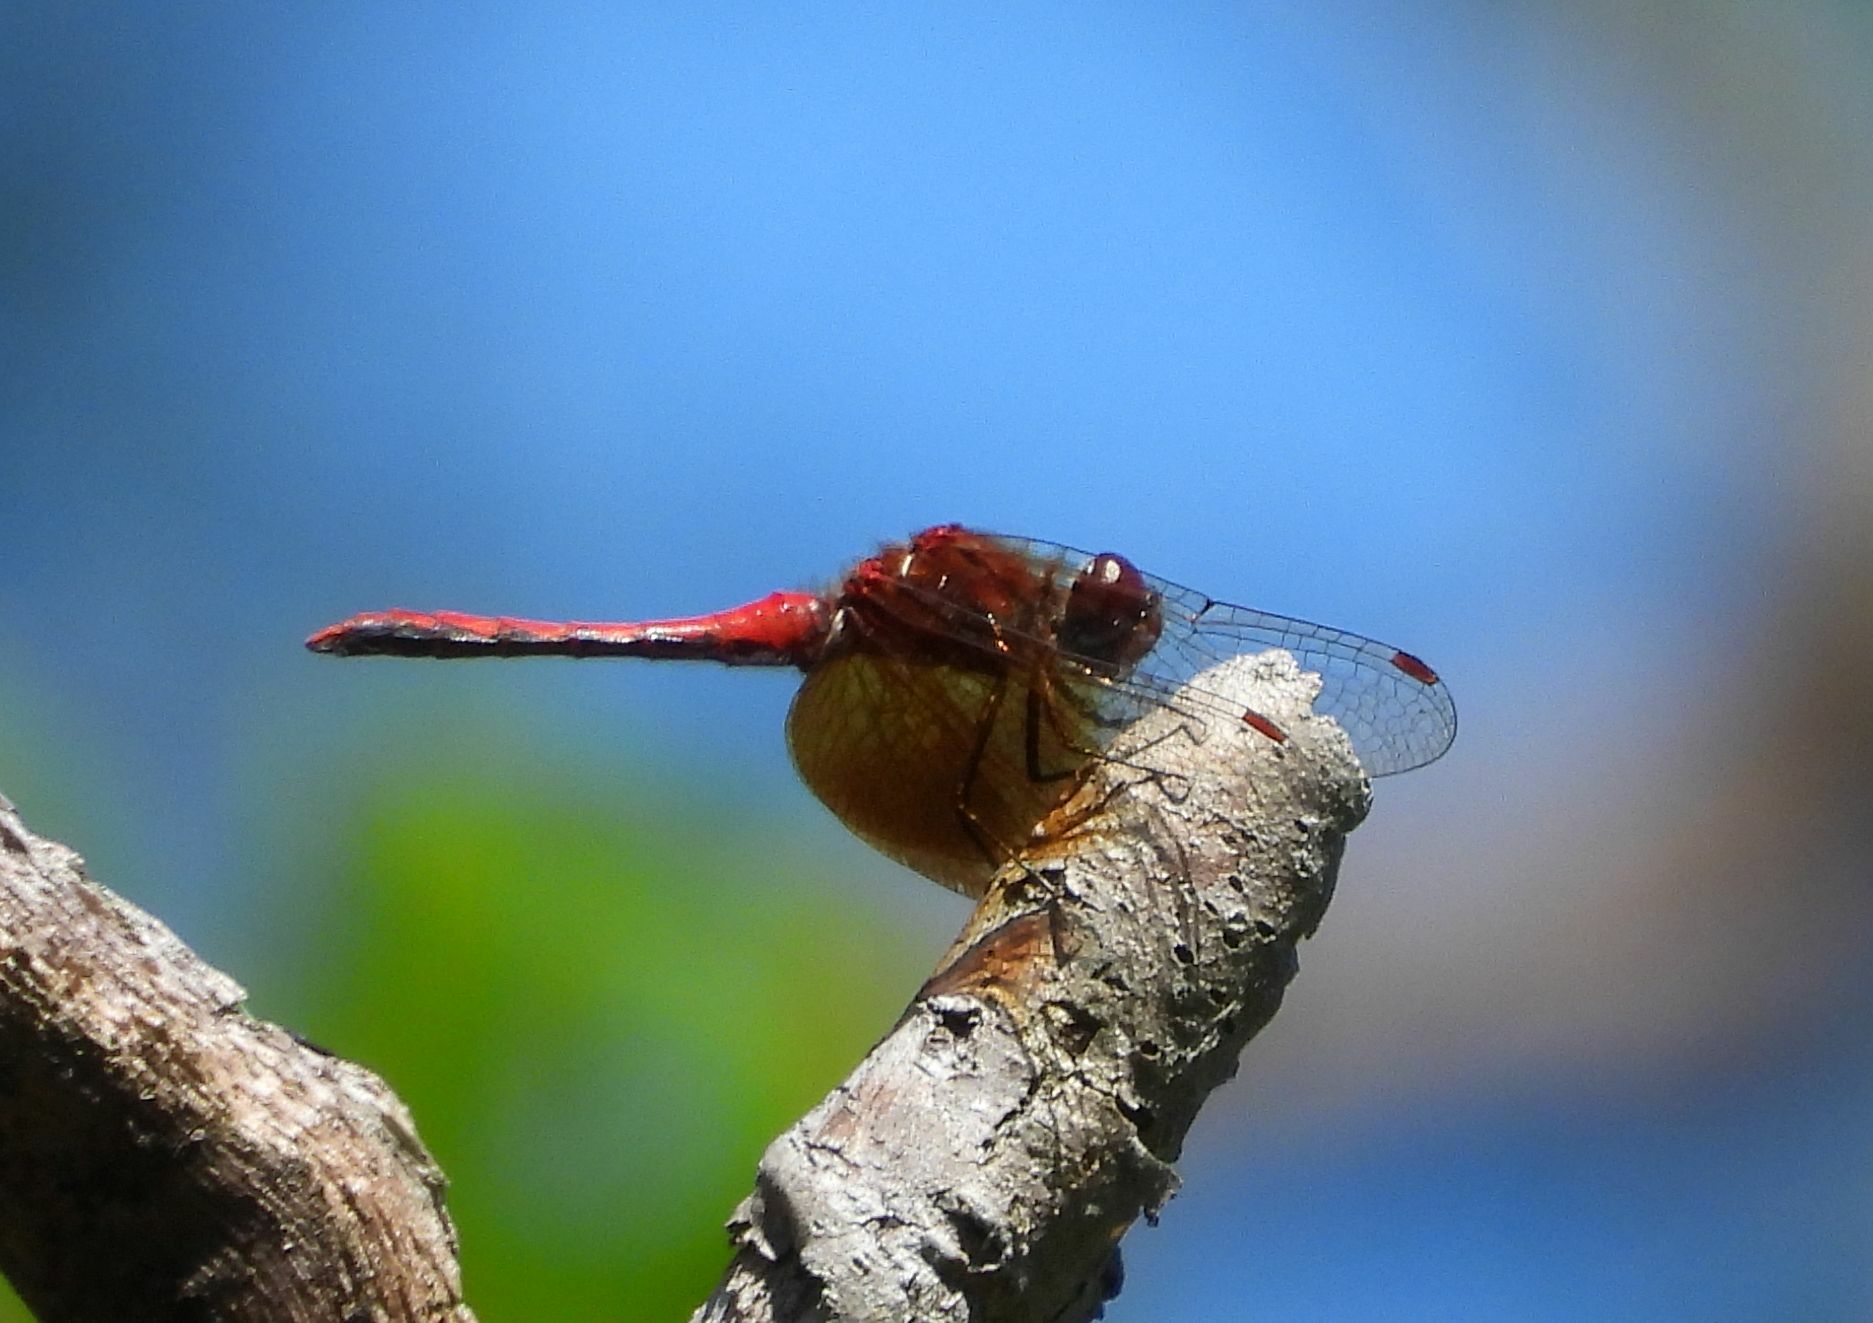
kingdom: Animalia
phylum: Arthropoda
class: Insecta
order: Odonata
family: Libellulidae
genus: Sympetrum
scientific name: Sympetrum semicinctum
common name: Band-winged meadowhawk
